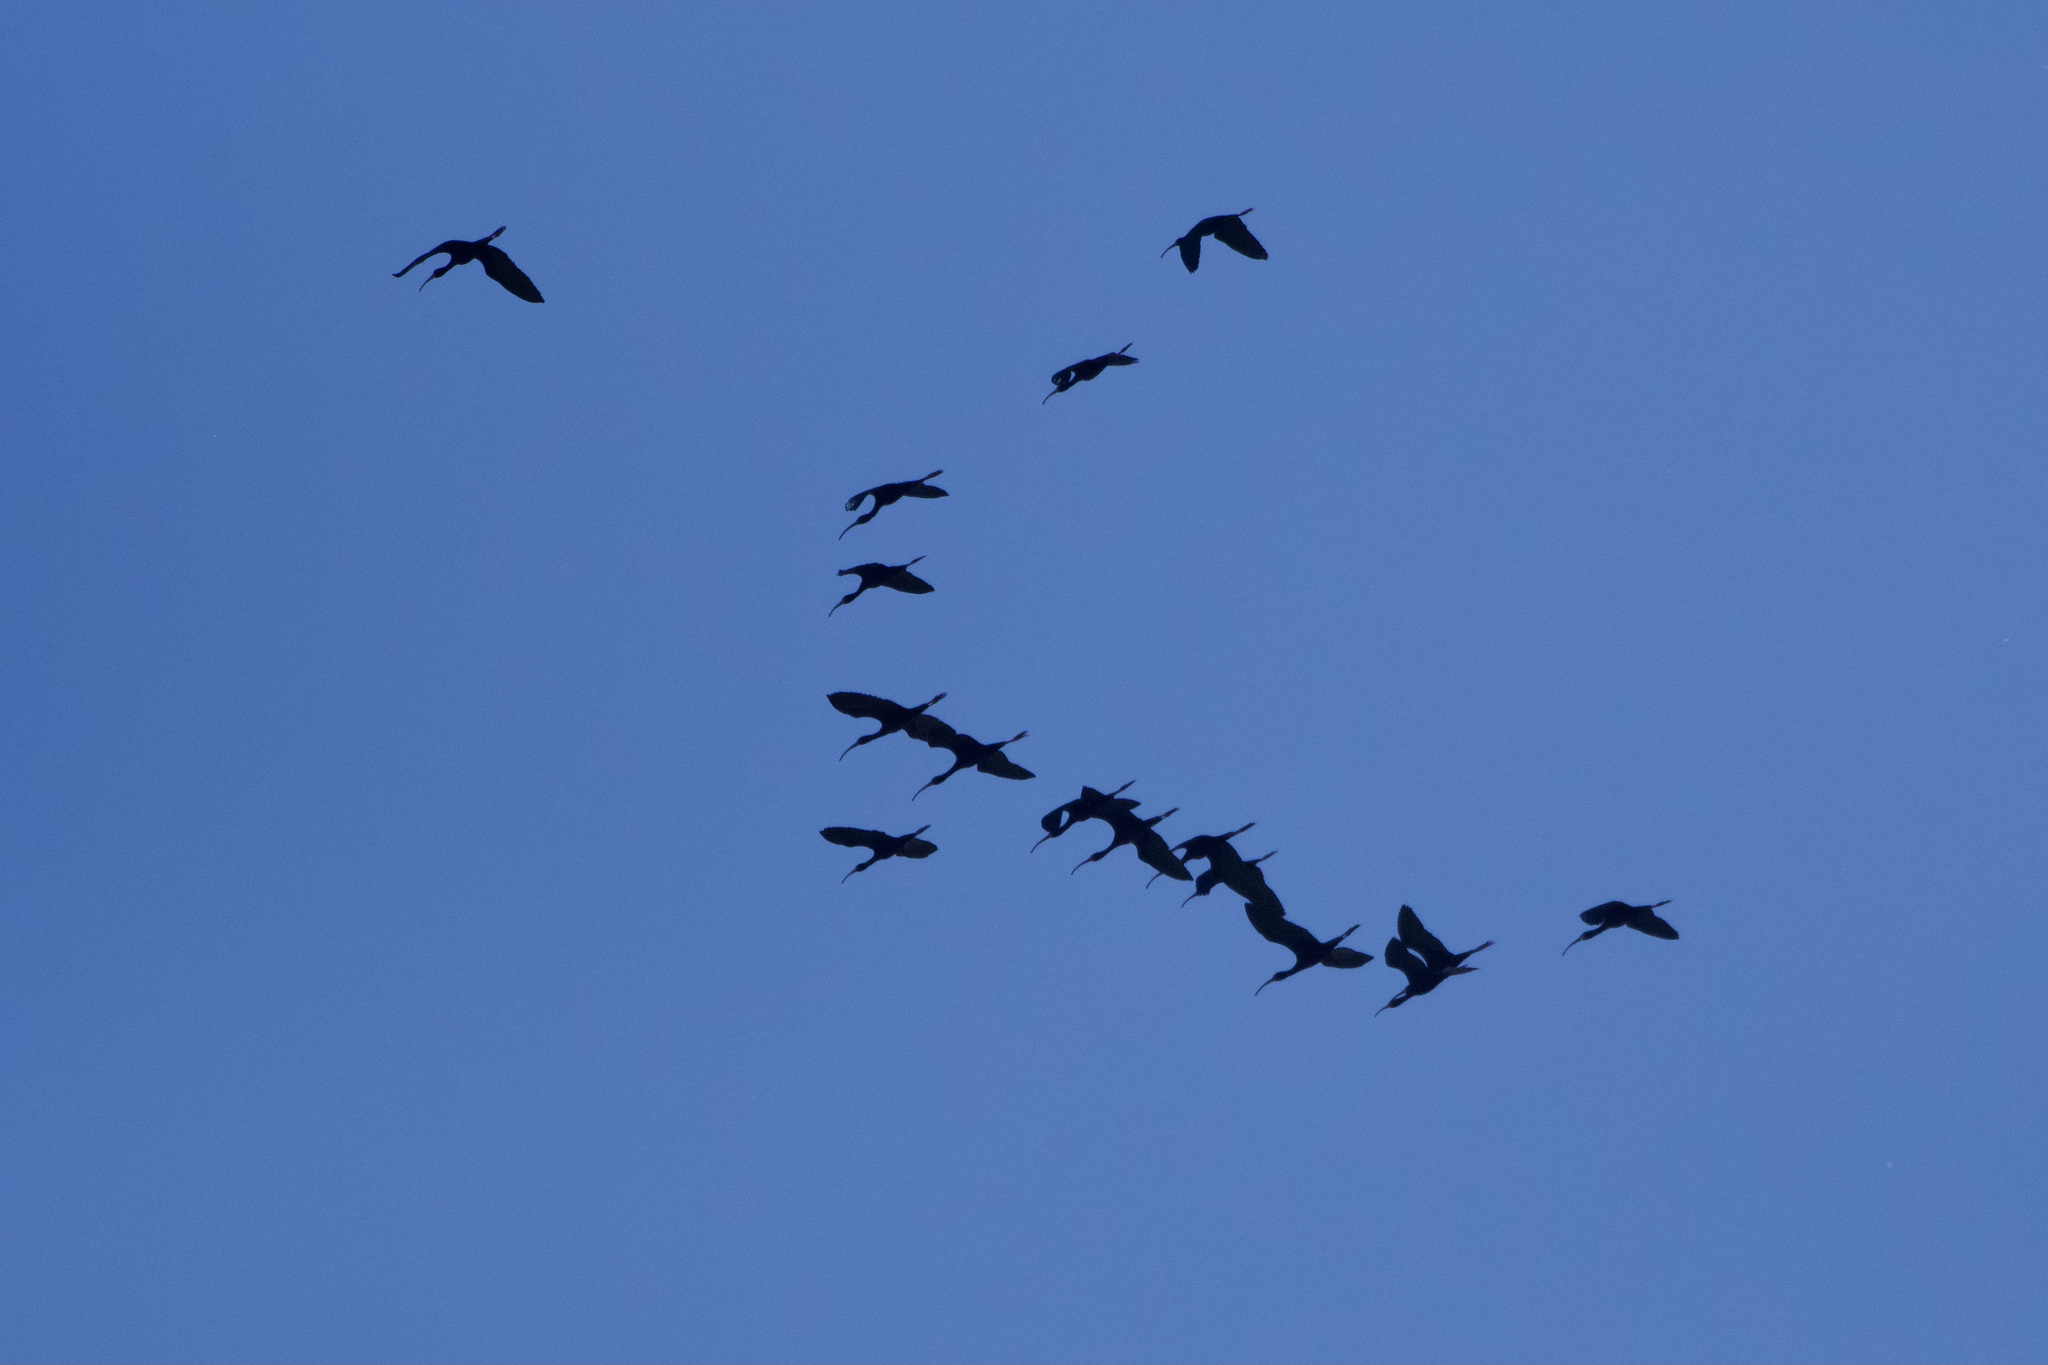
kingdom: Animalia
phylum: Chordata
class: Aves
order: Pelecaniformes
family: Threskiornithidae
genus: Plegadis
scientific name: Plegadis chihi
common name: White-faced ibis
